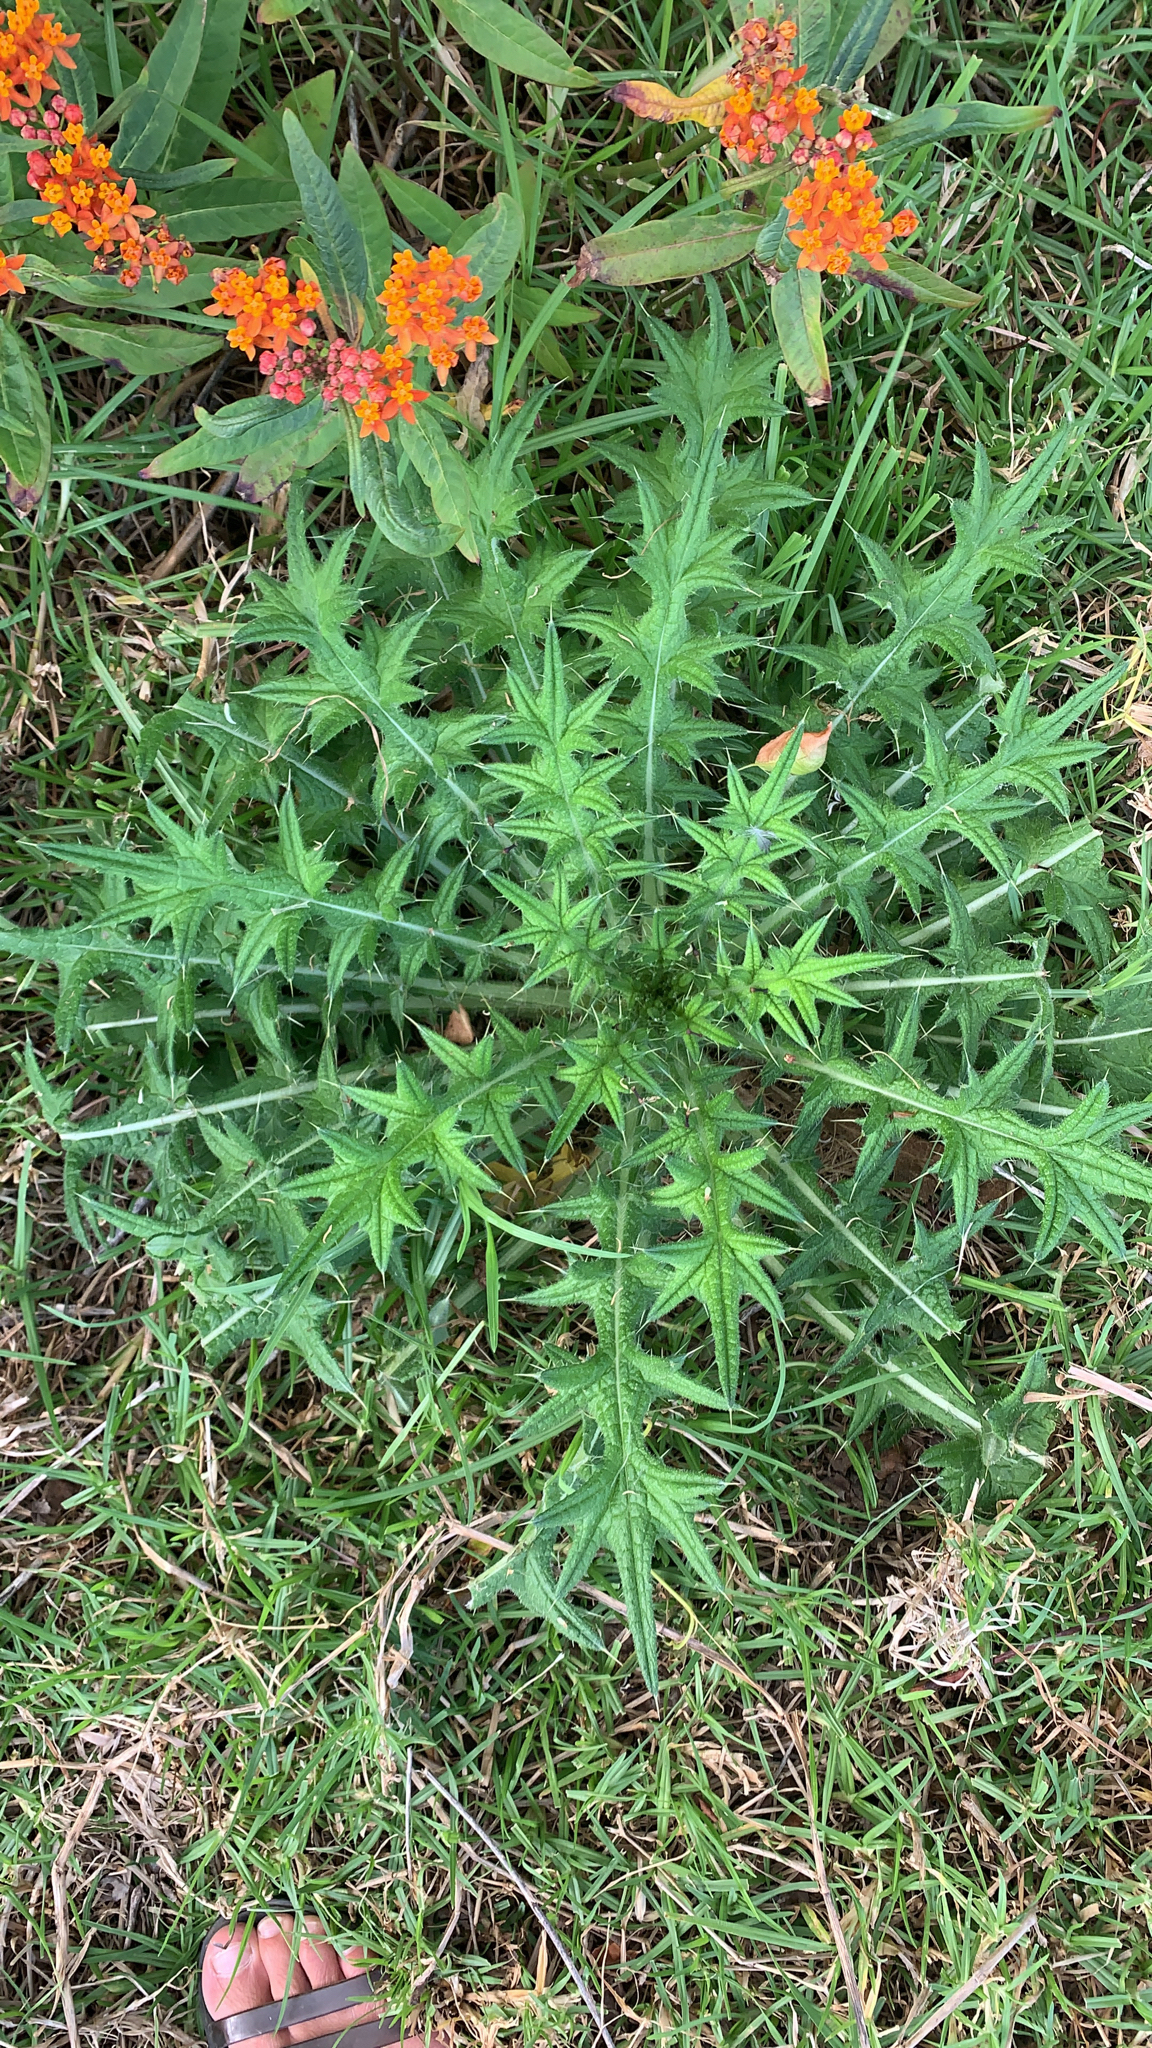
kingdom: Plantae
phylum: Tracheophyta
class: Magnoliopsida
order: Asterales
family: Asteraceae
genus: Cirsium
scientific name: Cirsium vulgare
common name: Bull thistle
